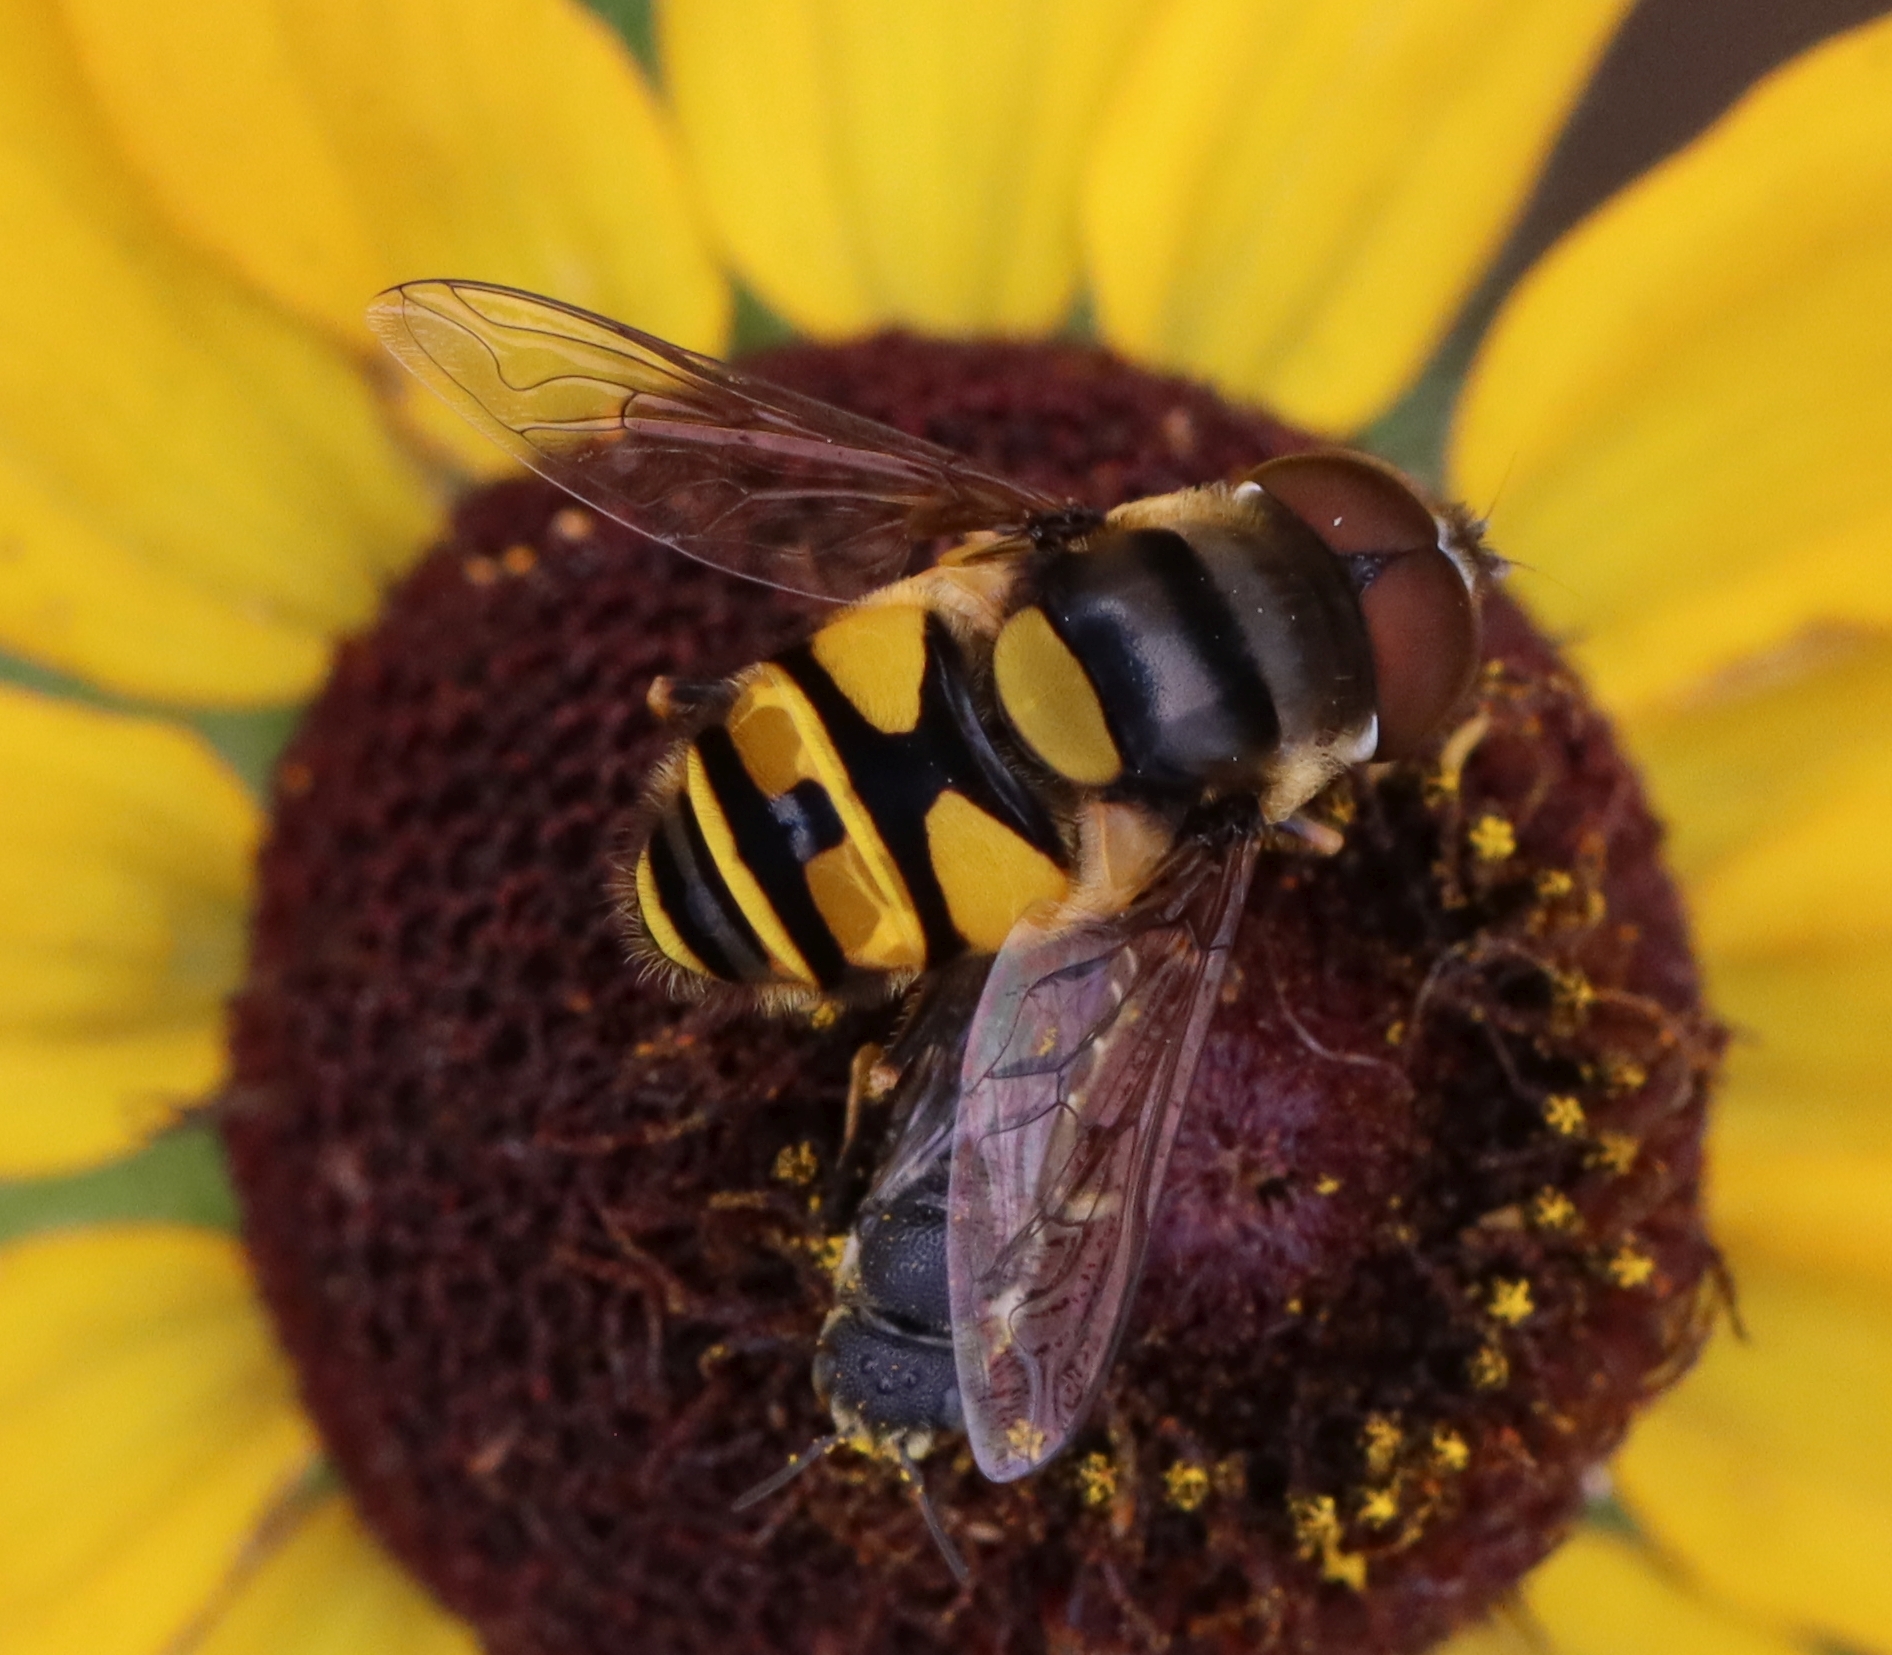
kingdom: Animalia
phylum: Arthropoda
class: Insecta
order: Diptera
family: Syrphidae
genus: Eristalis
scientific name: Eristalis transversa
